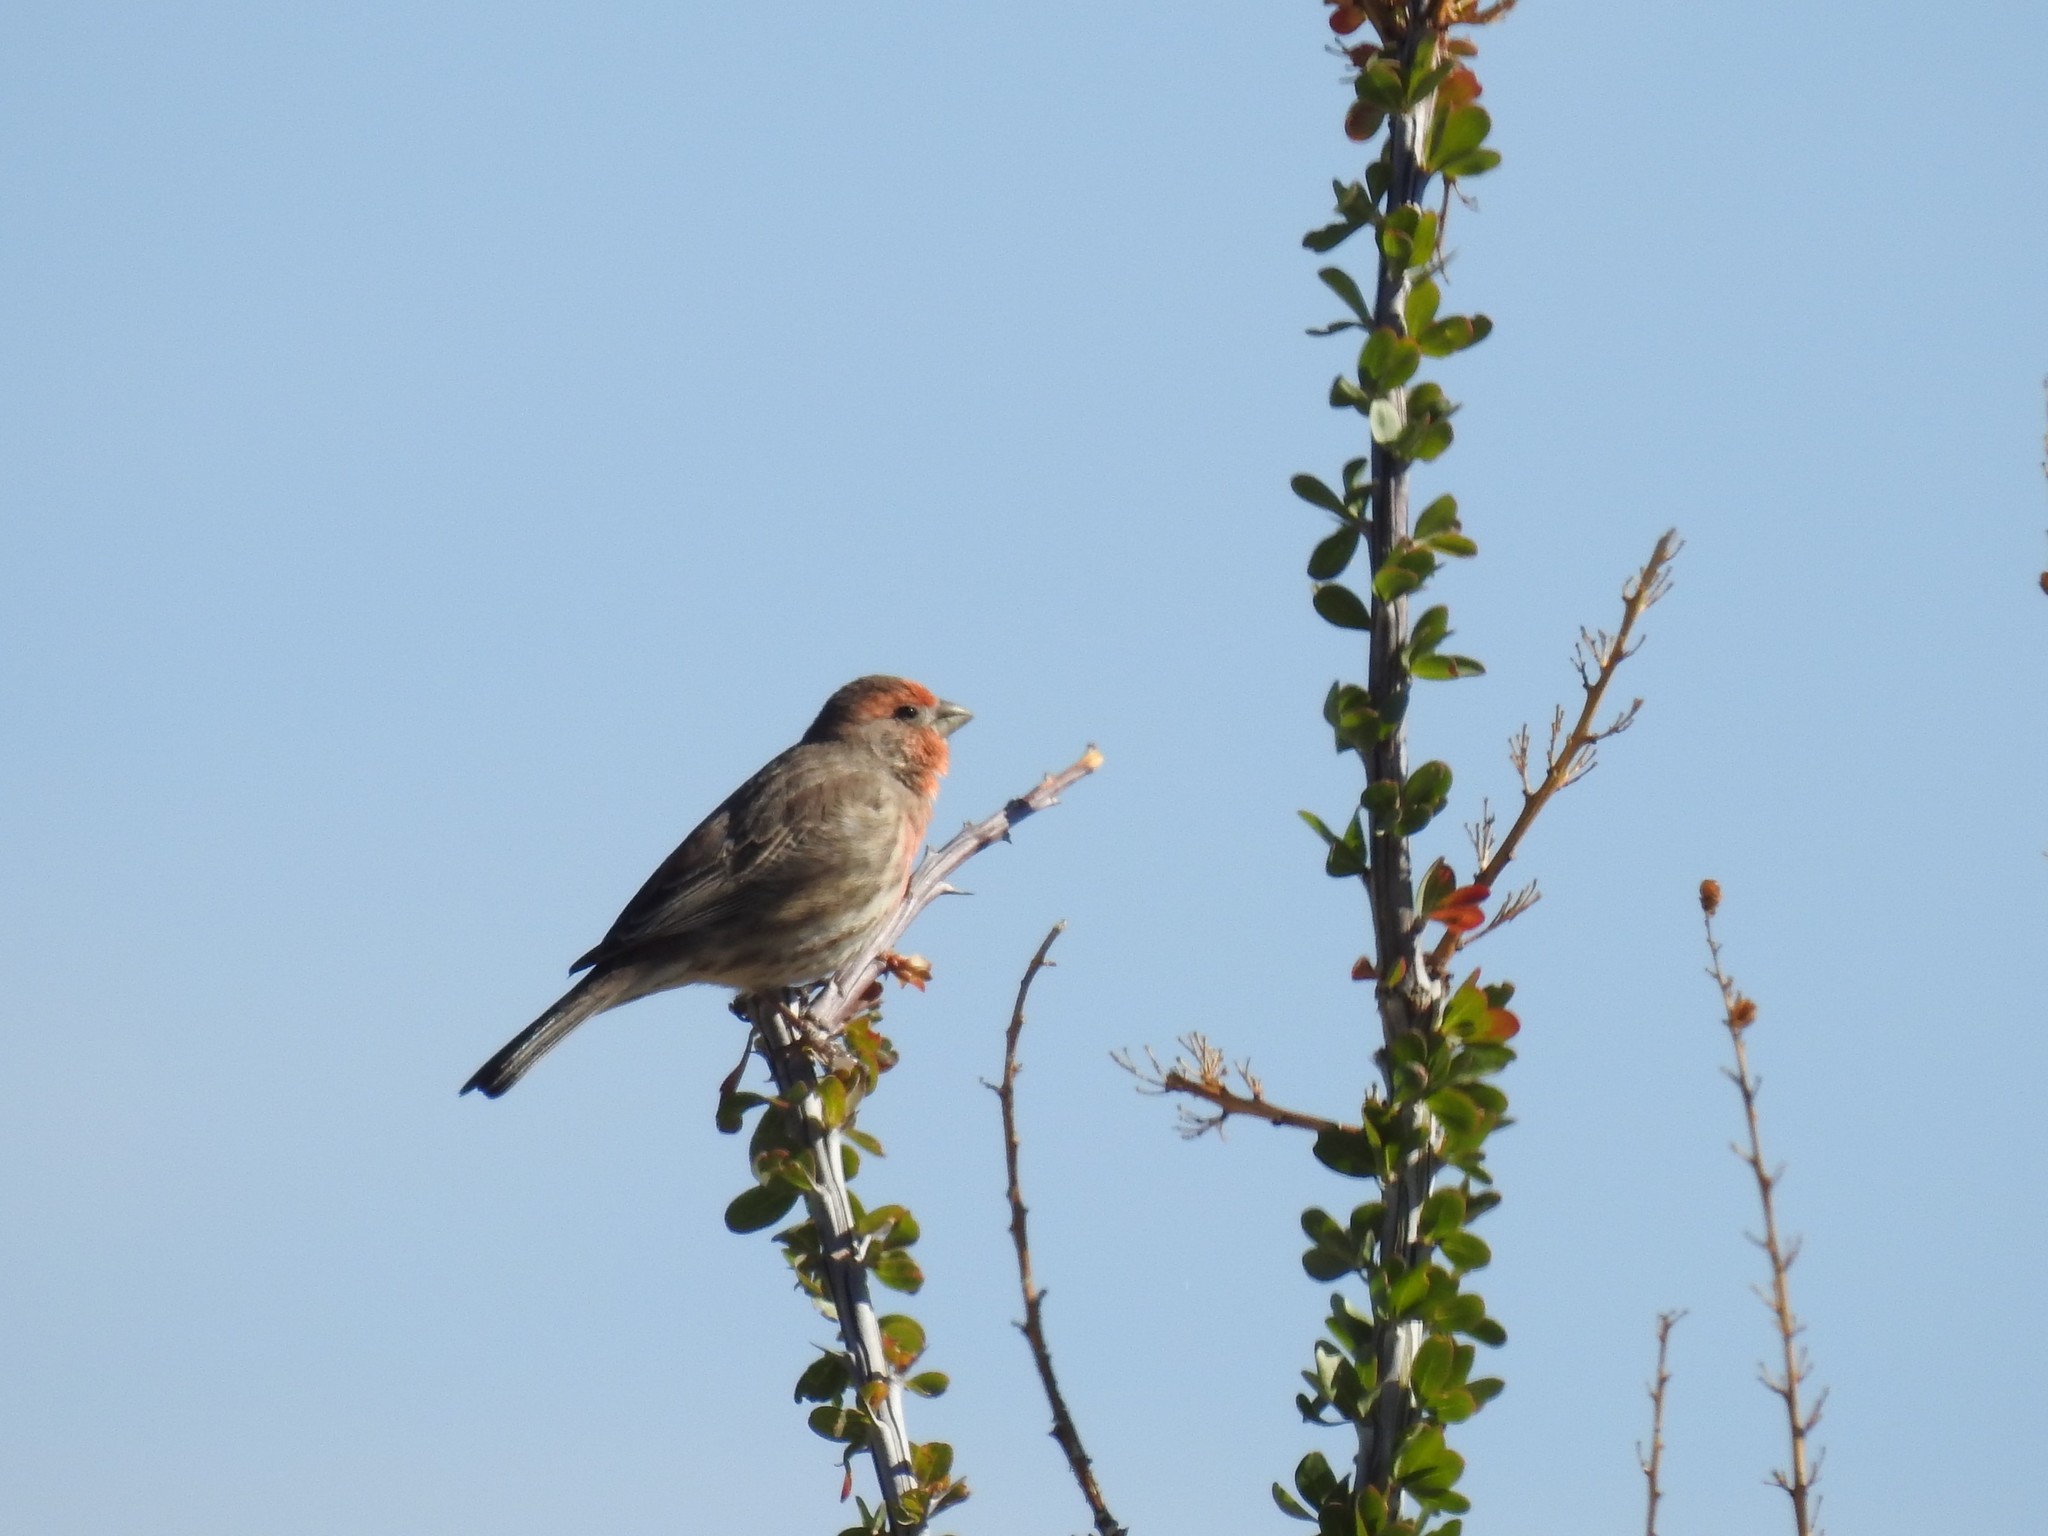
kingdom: Animalia
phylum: Chordata
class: Aves
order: Passeriformes
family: Fringillidae
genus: Haemorhous
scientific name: Haemorhous mexicanus
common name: House finch
